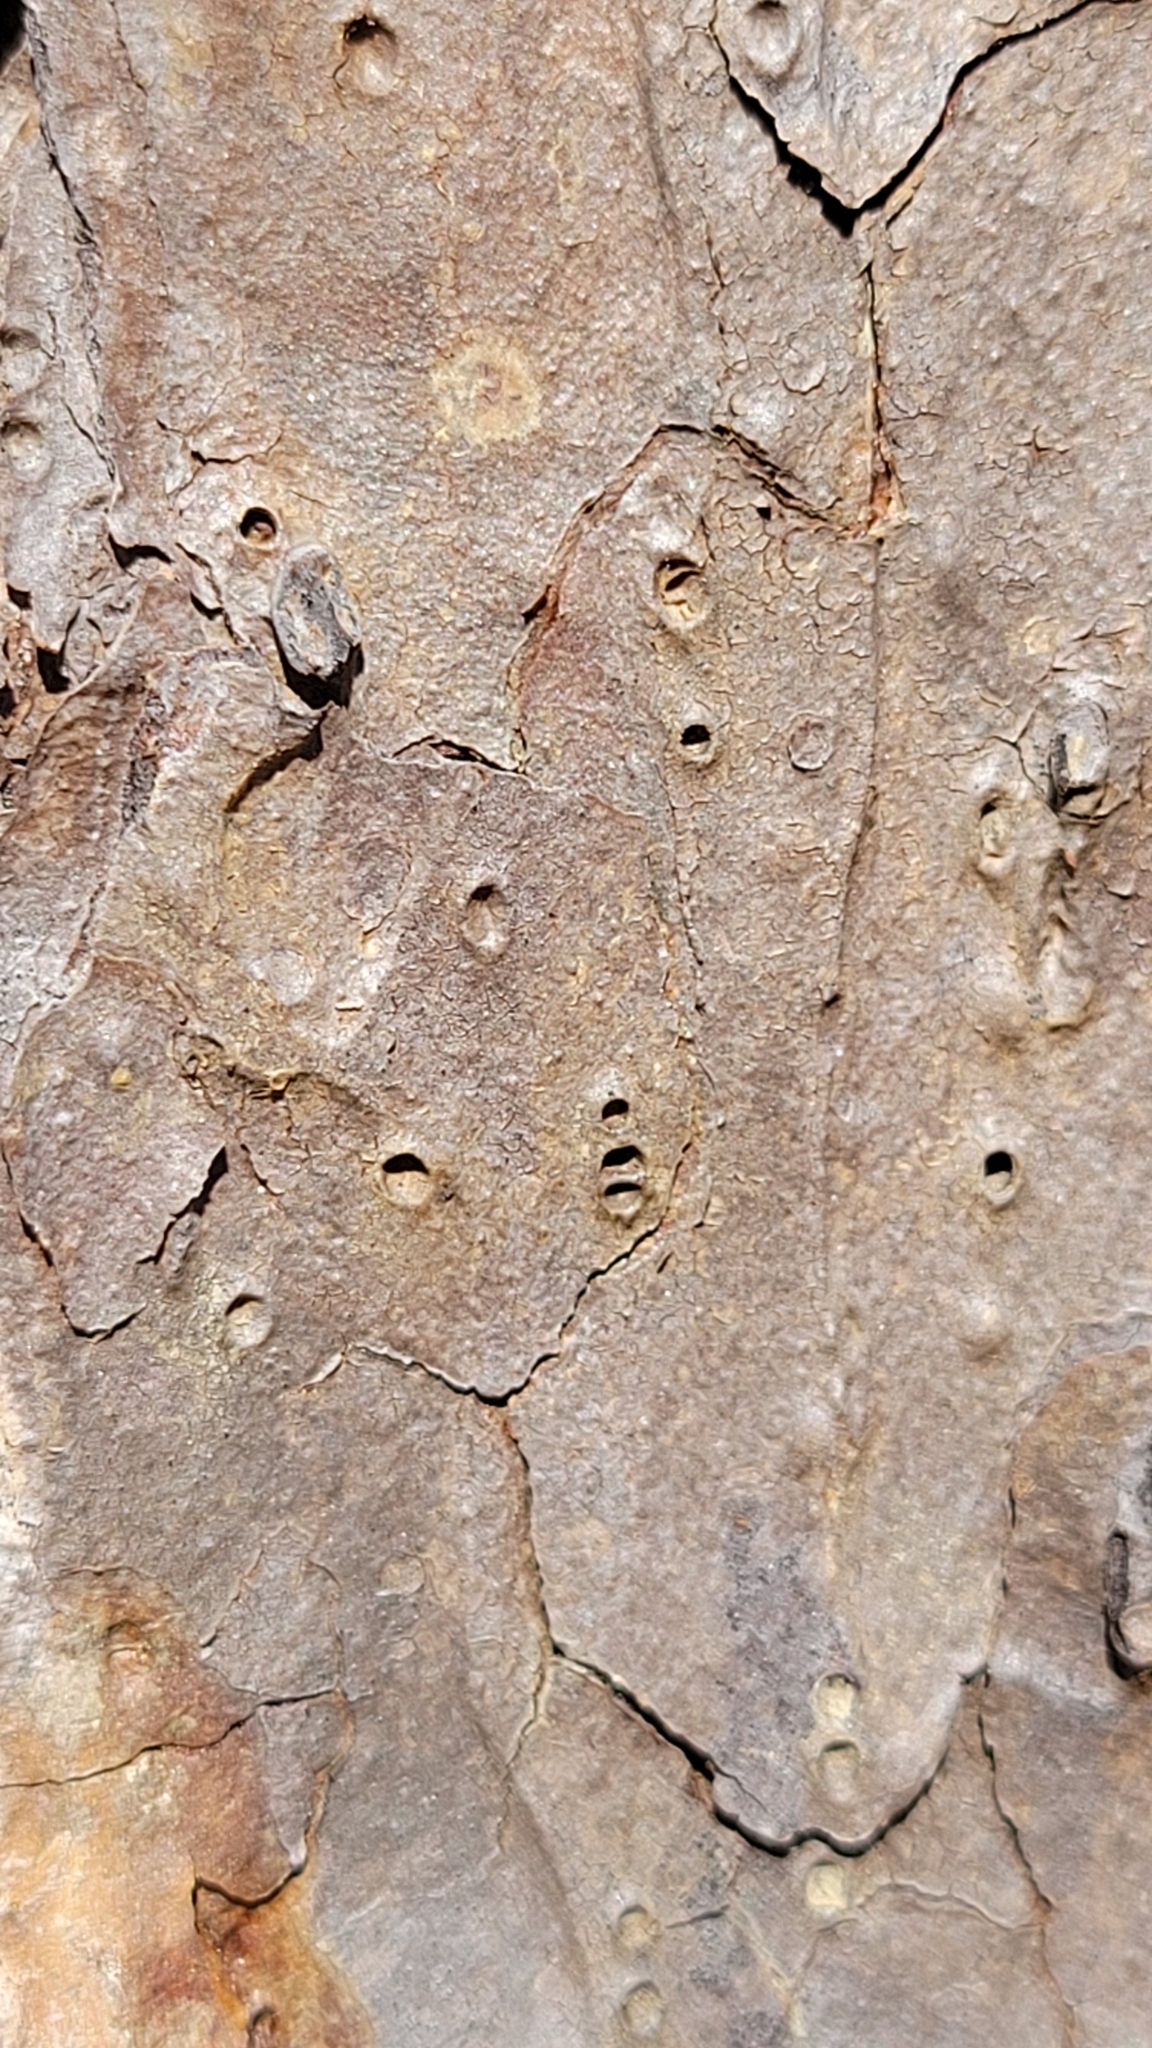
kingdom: Plantae
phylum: Tracheophyta
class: Pinopsida
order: Pinales
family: Pinaceae
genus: Pinus
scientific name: Pinus echinata
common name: Shortleaf pine
